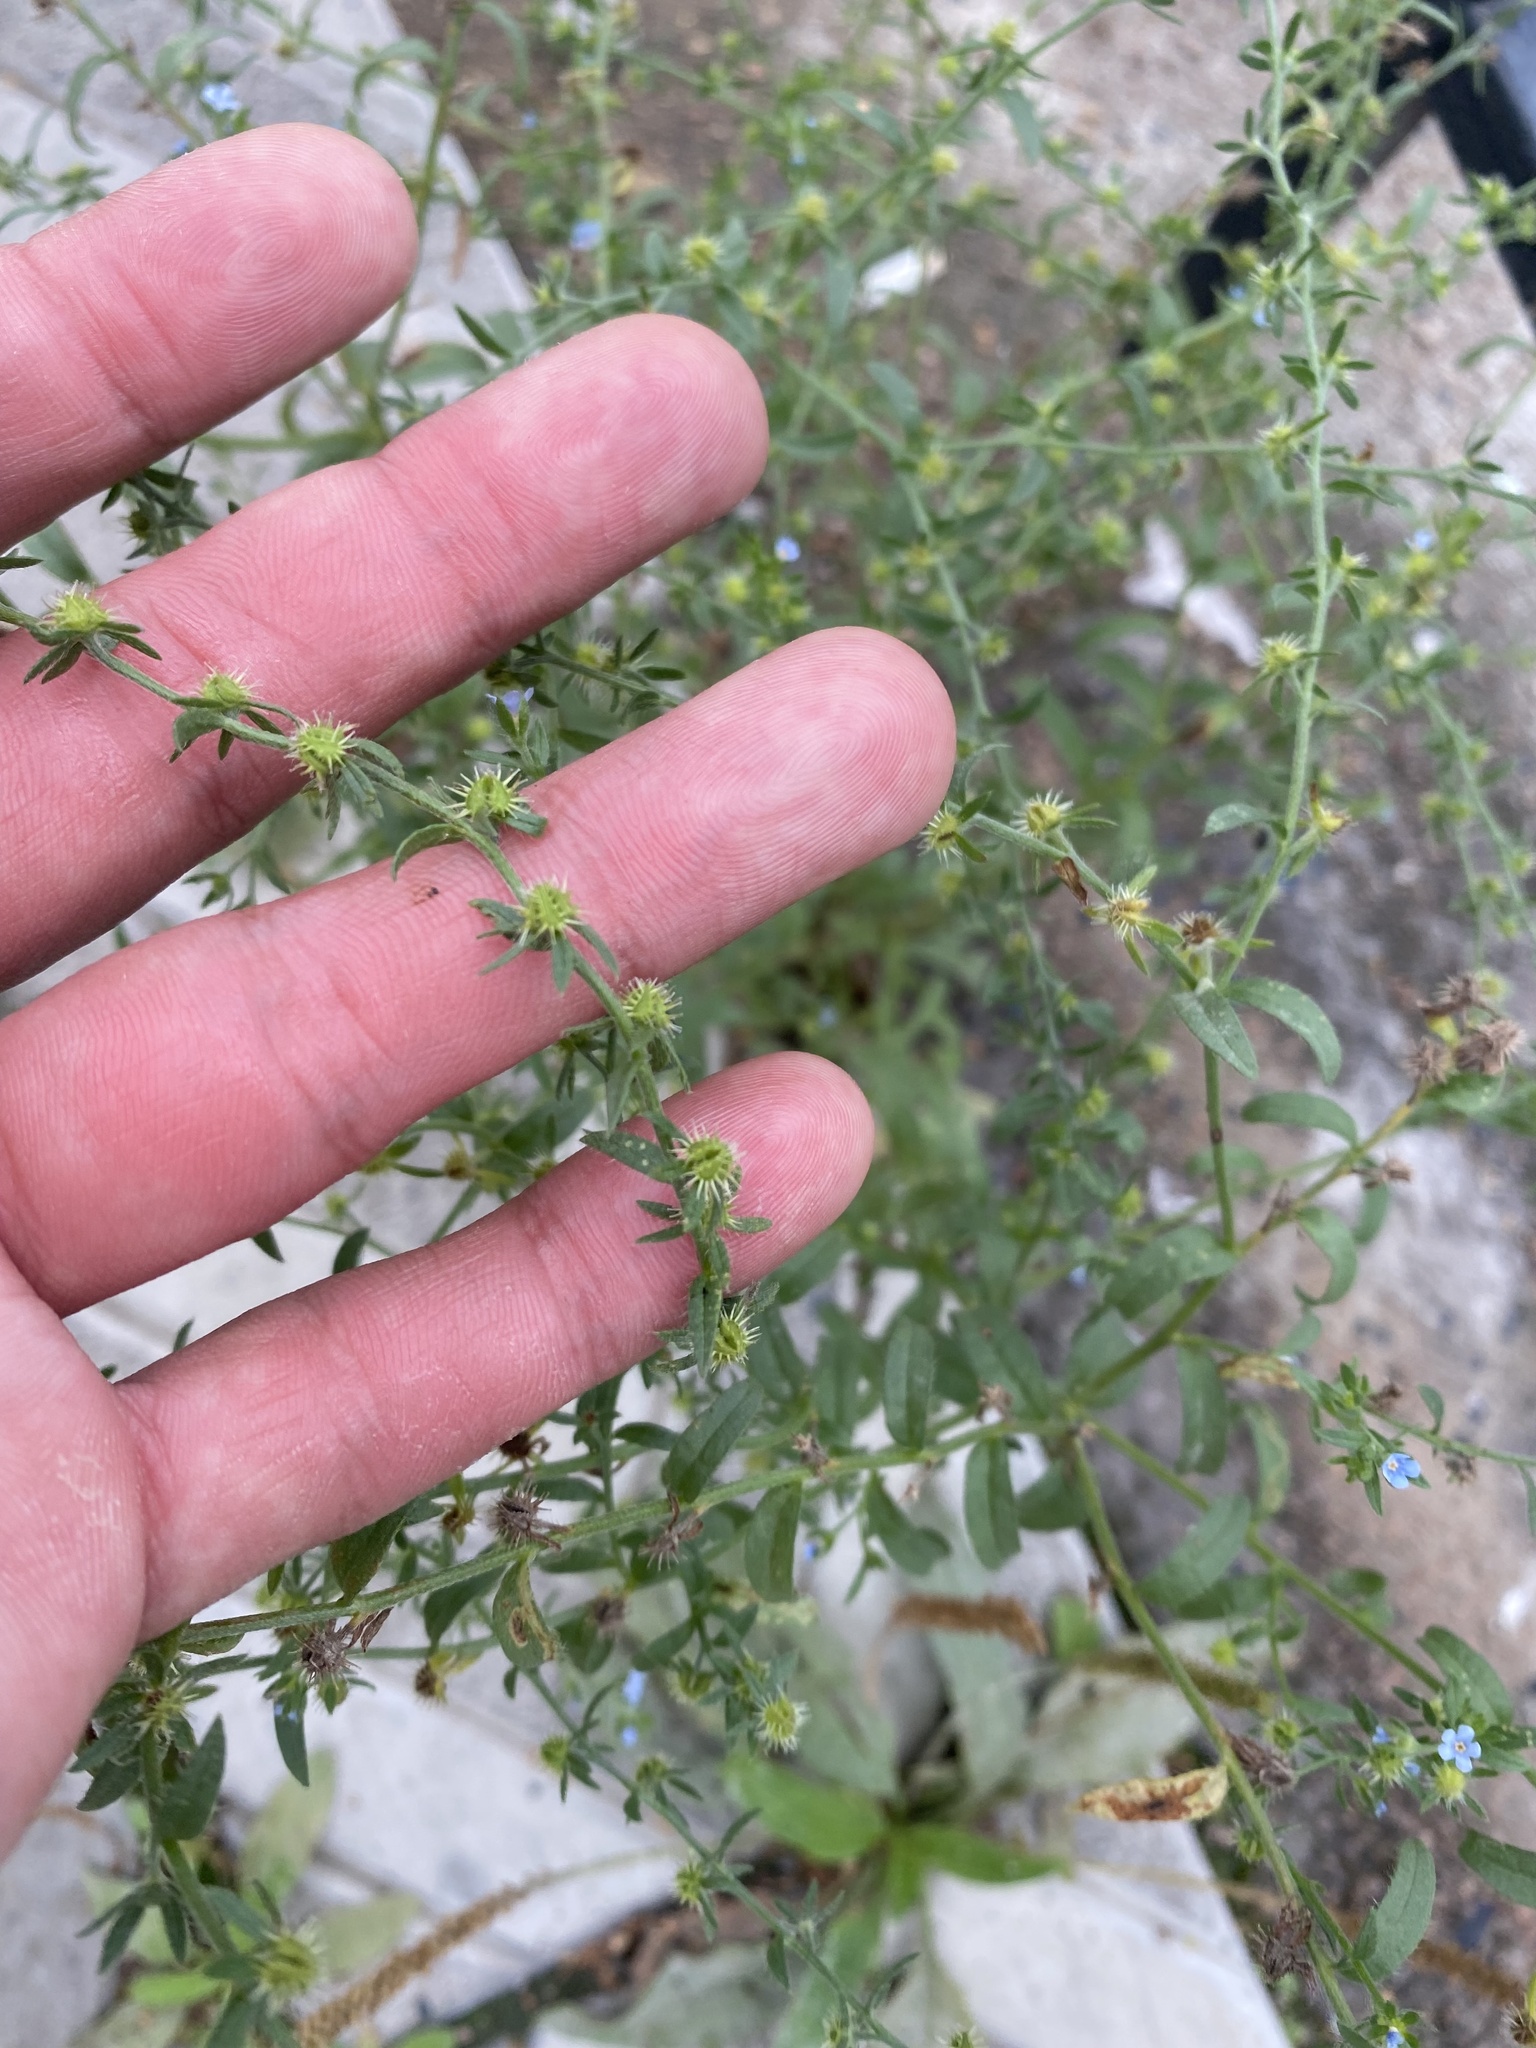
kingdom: Plantae
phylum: Tracheophyta
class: Magnoliopsida
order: Boraginales
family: Boraginaceae
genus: Lappula
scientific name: Lappula squarrosa
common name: European stickseed
